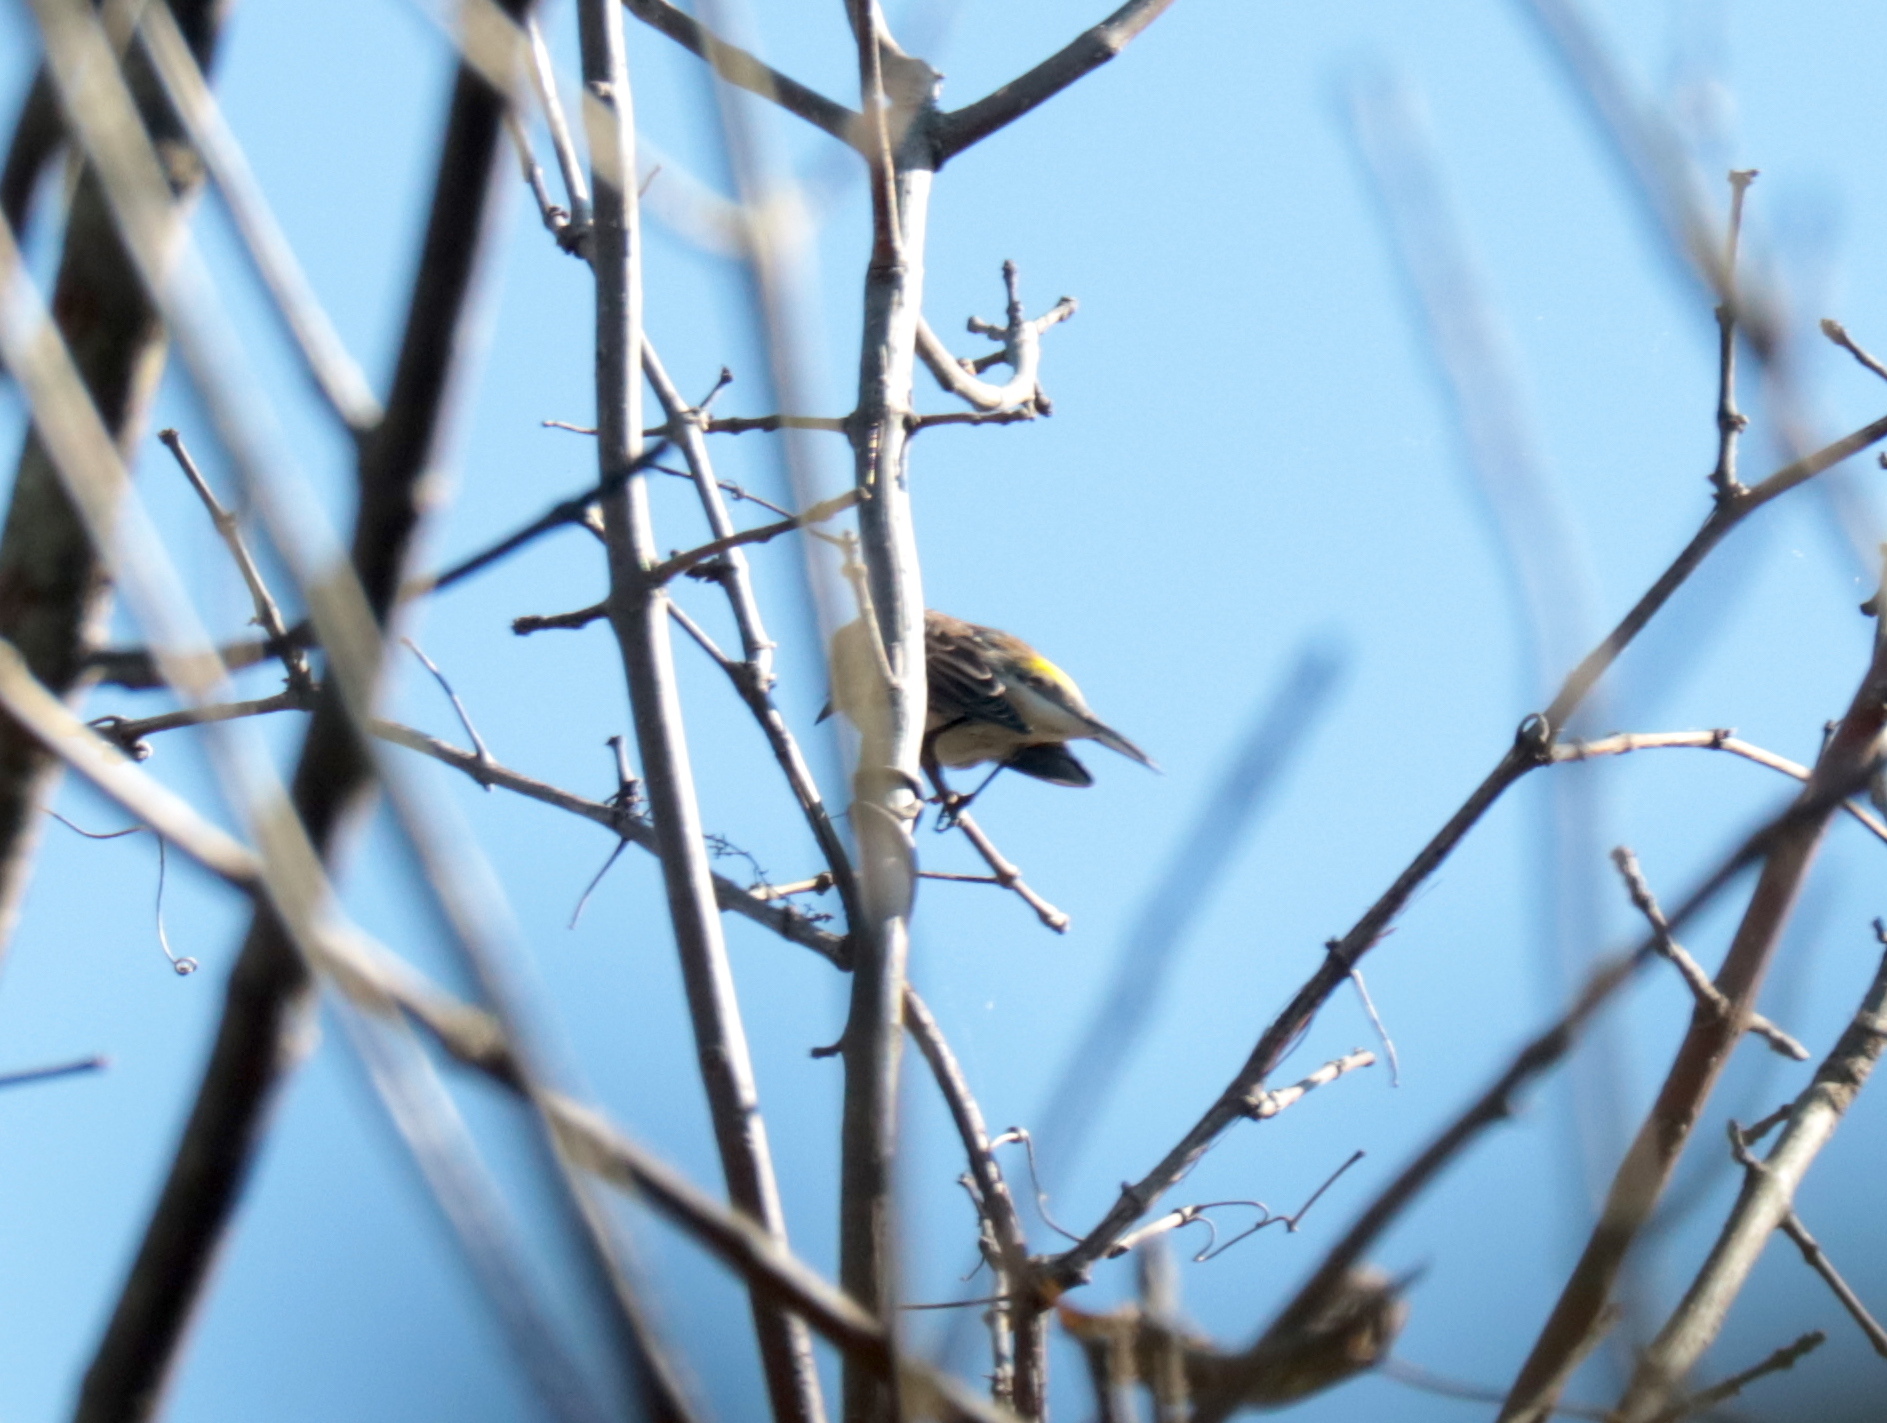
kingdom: Animalia
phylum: Chordata
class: Aves
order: Passeriformes
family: Parulidae
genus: Setophaga
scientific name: Setophaga coronata
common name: Myrtle warbler
